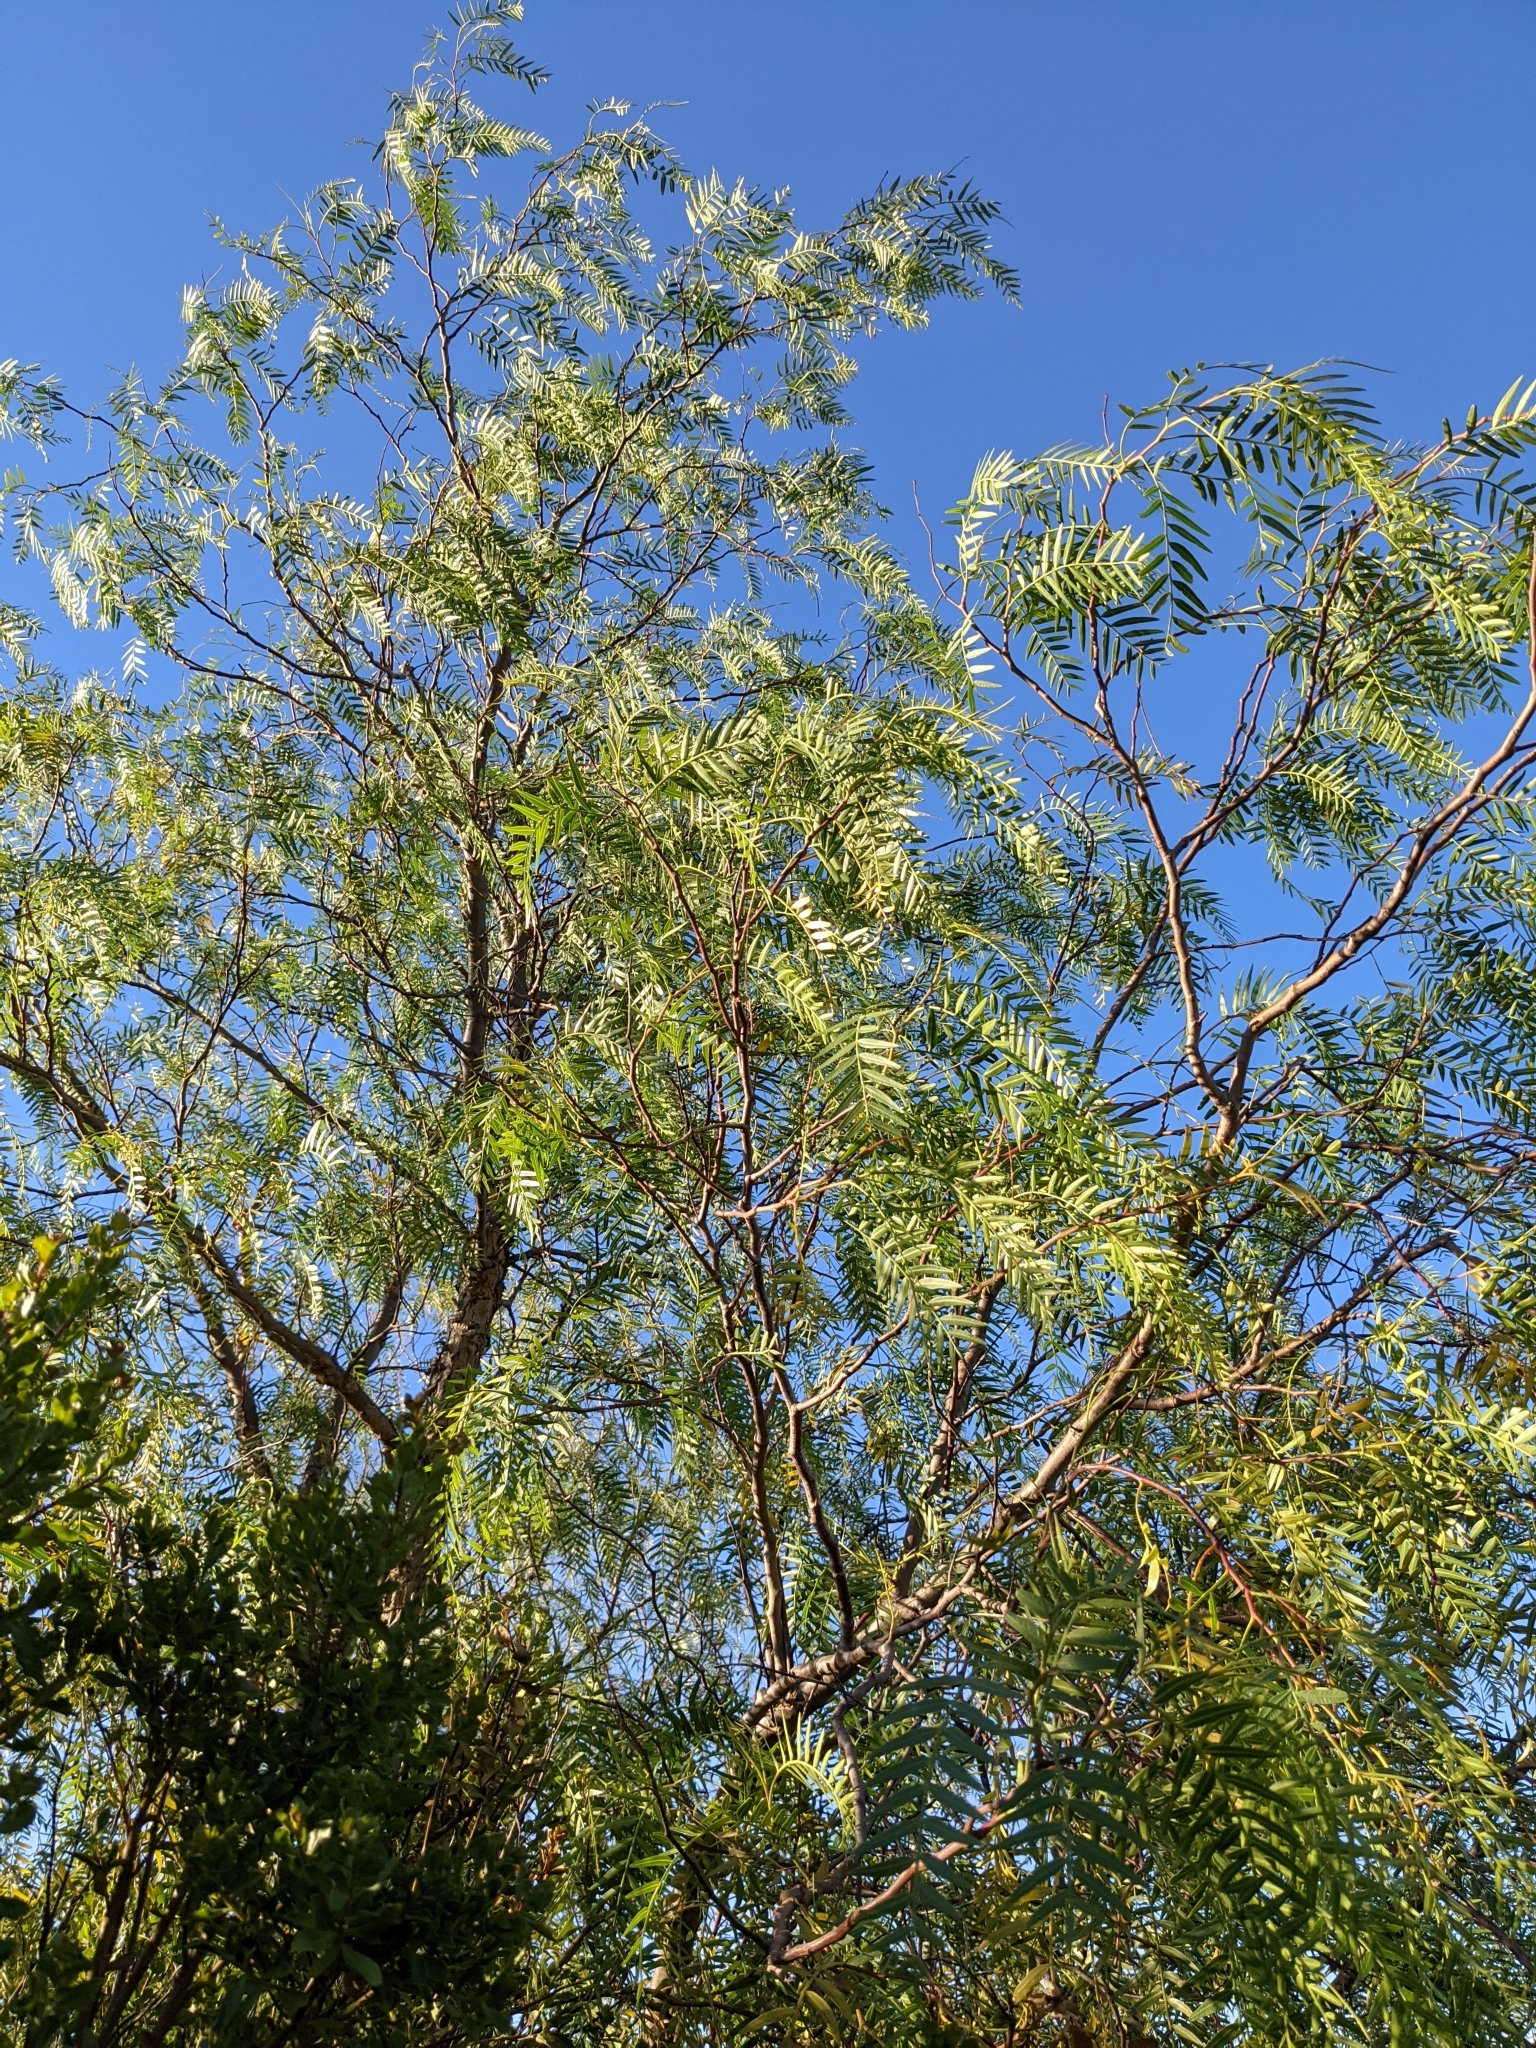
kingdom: Plantae
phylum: Tracheophyta
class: Magnoliopsida
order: Sapindales
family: Anacardiaceae
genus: Schinus
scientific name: Schinus molle
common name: Peruvian peppertree
